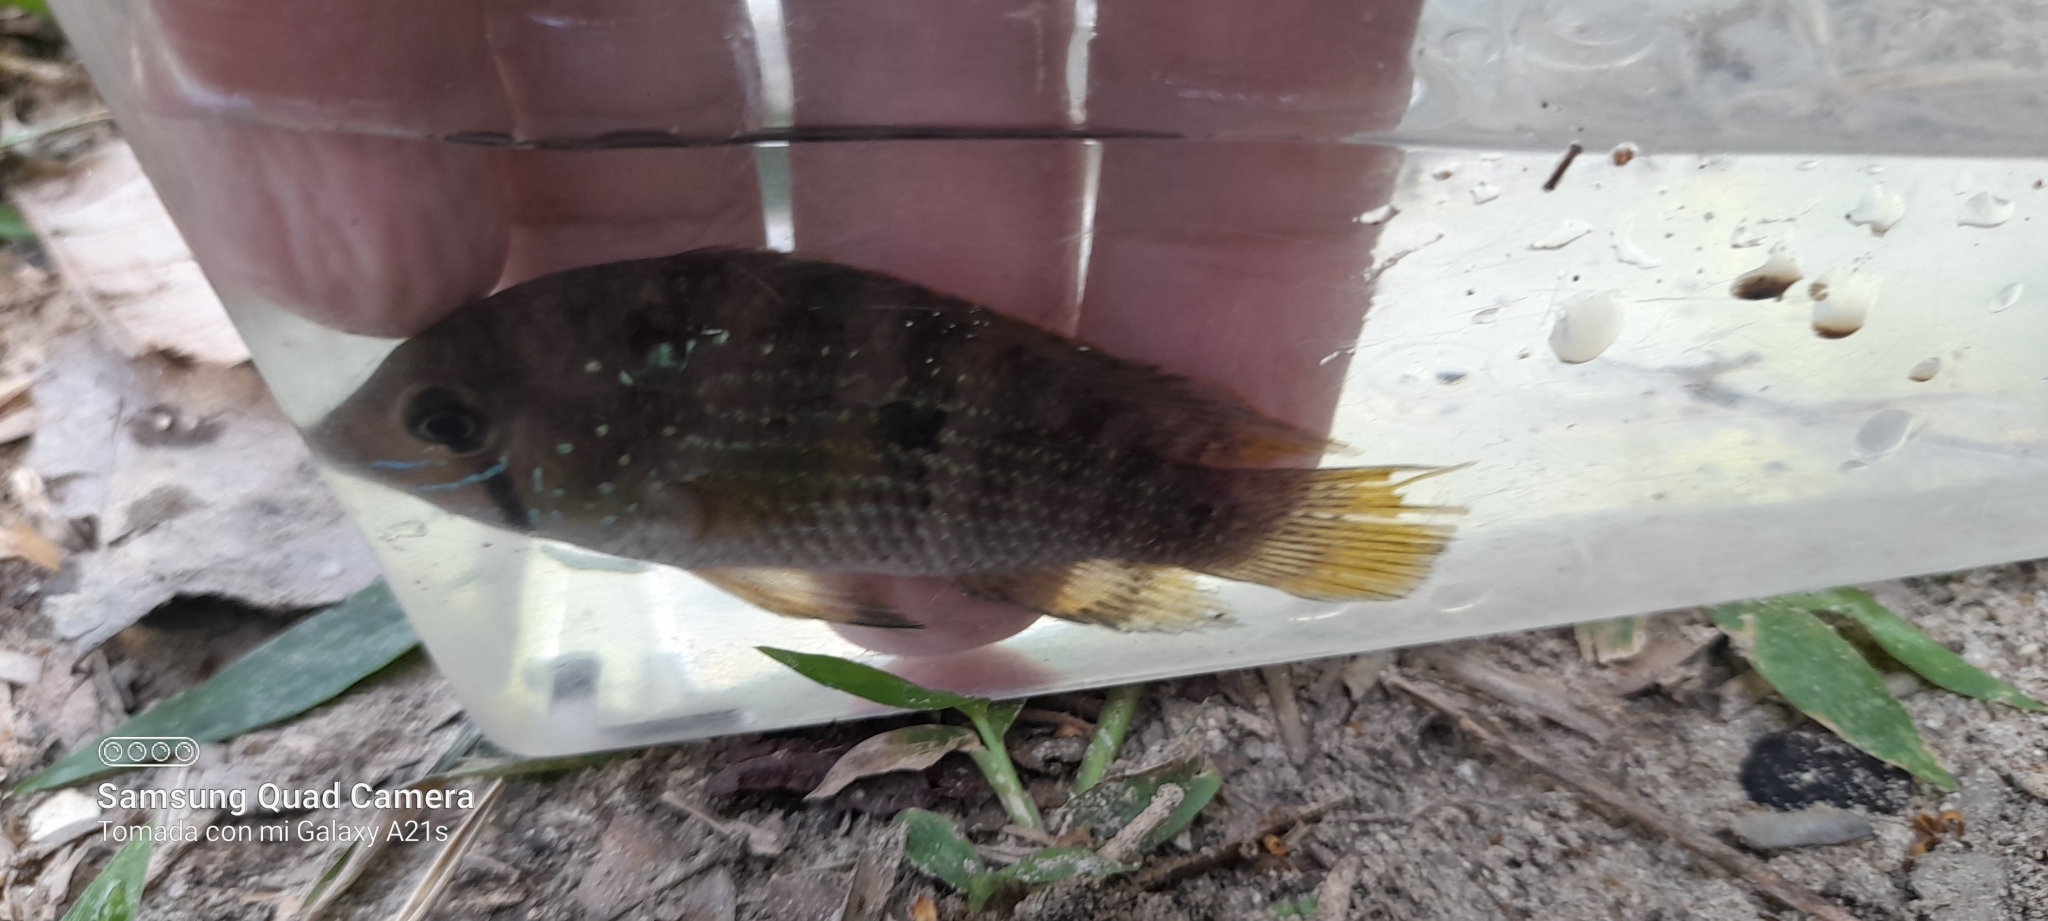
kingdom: Animalia
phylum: Chordata
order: Perciformes
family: Cichlidae
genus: Andinoacara
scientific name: Andinoacara coeruleopunctatus
